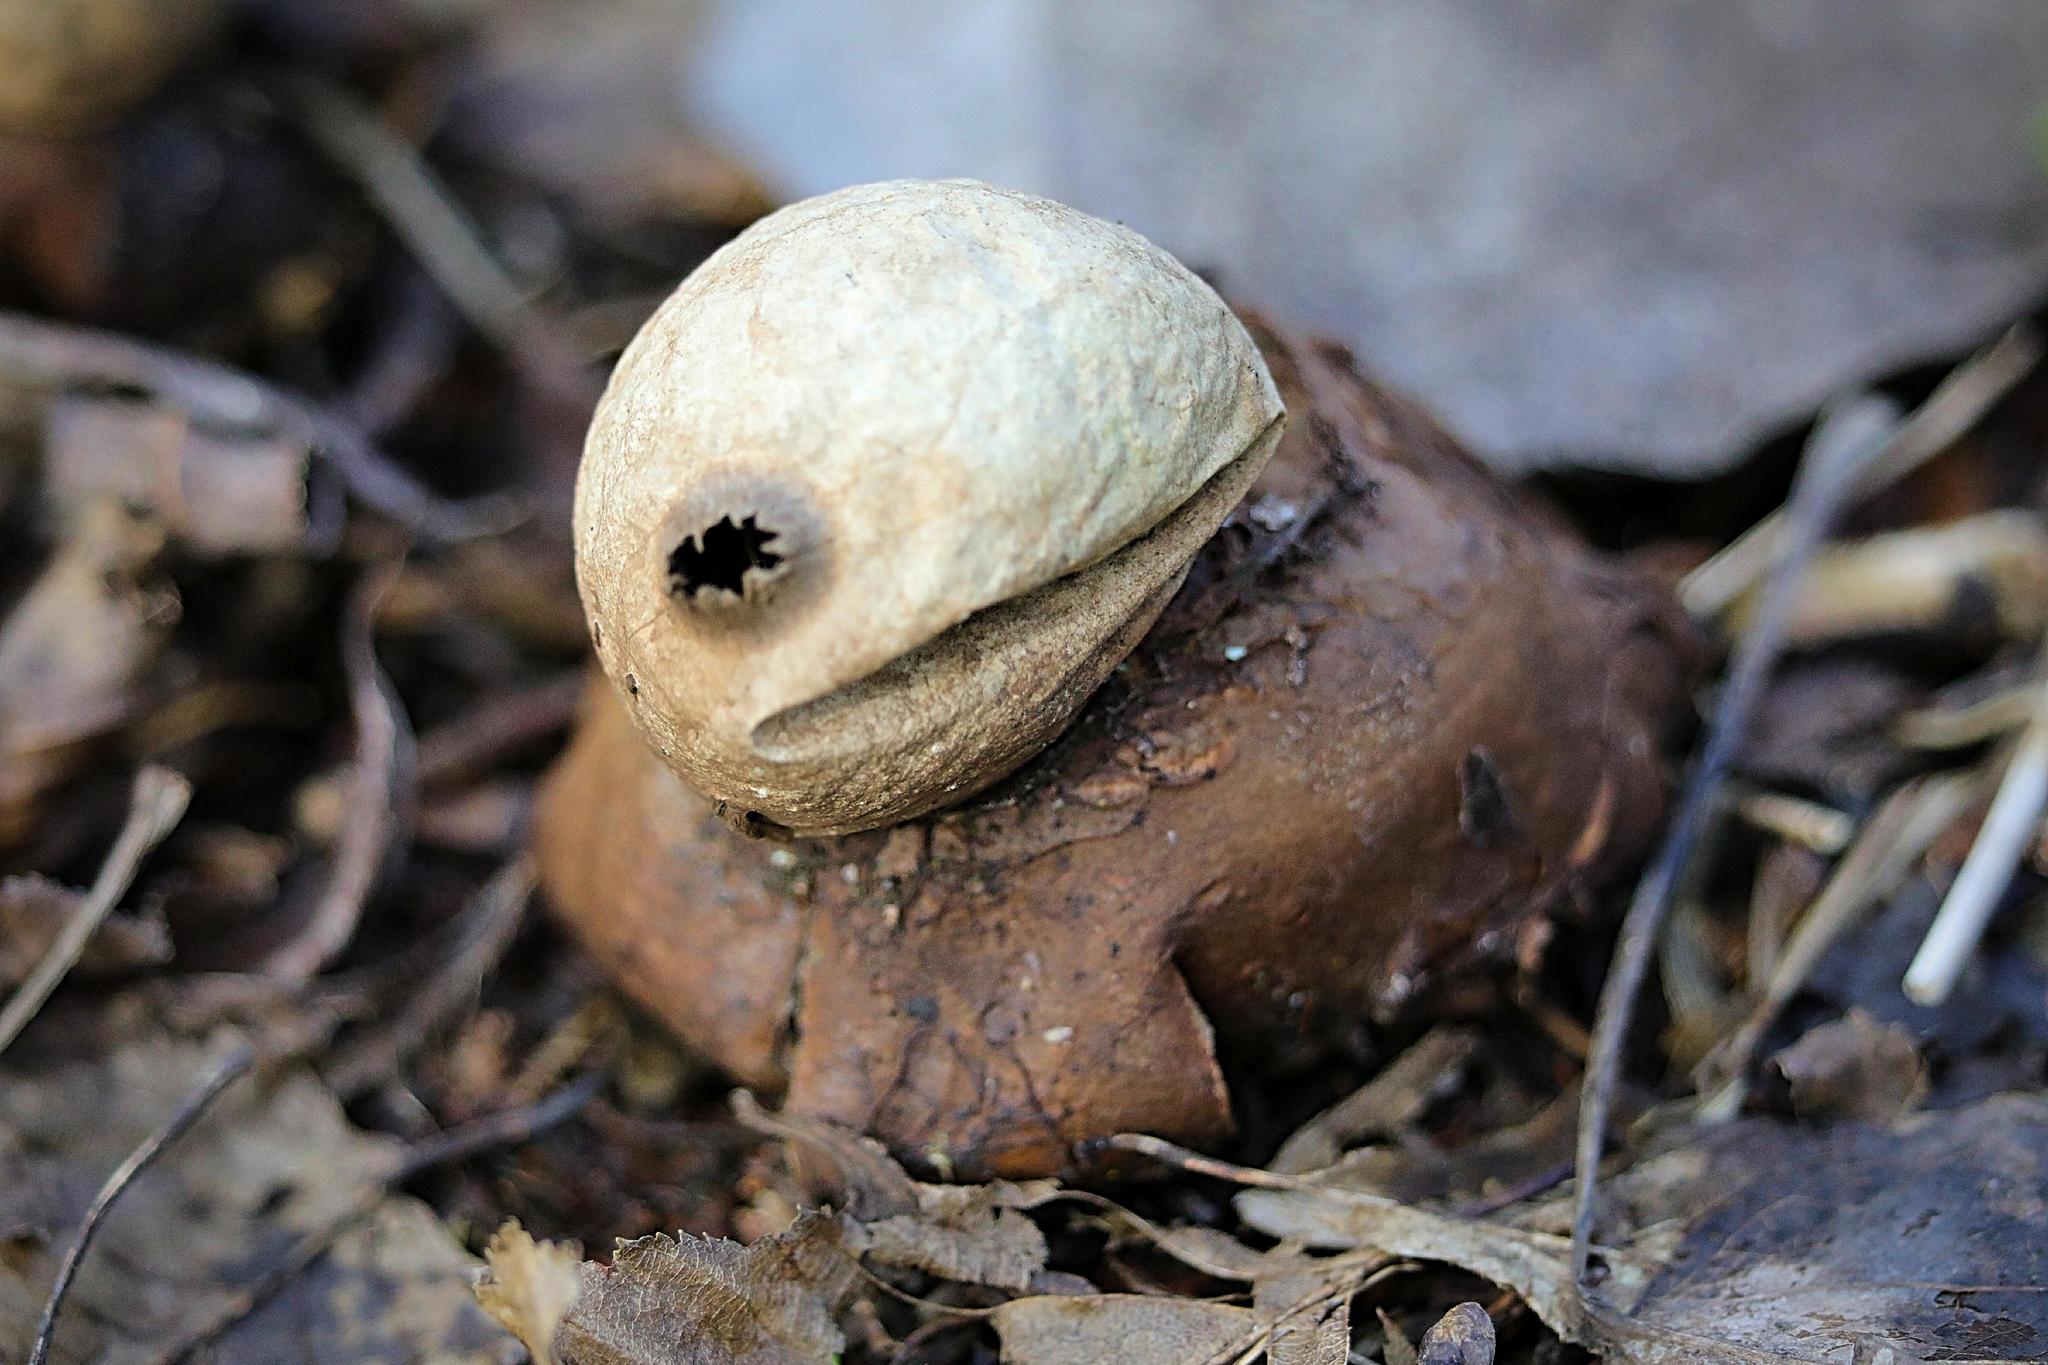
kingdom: Fungi
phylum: Basidiomycota
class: Agaricomycetes
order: Geastrales
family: Geastraceae
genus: Geastrum
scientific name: Geastrum triplex
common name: Collared earthstar
